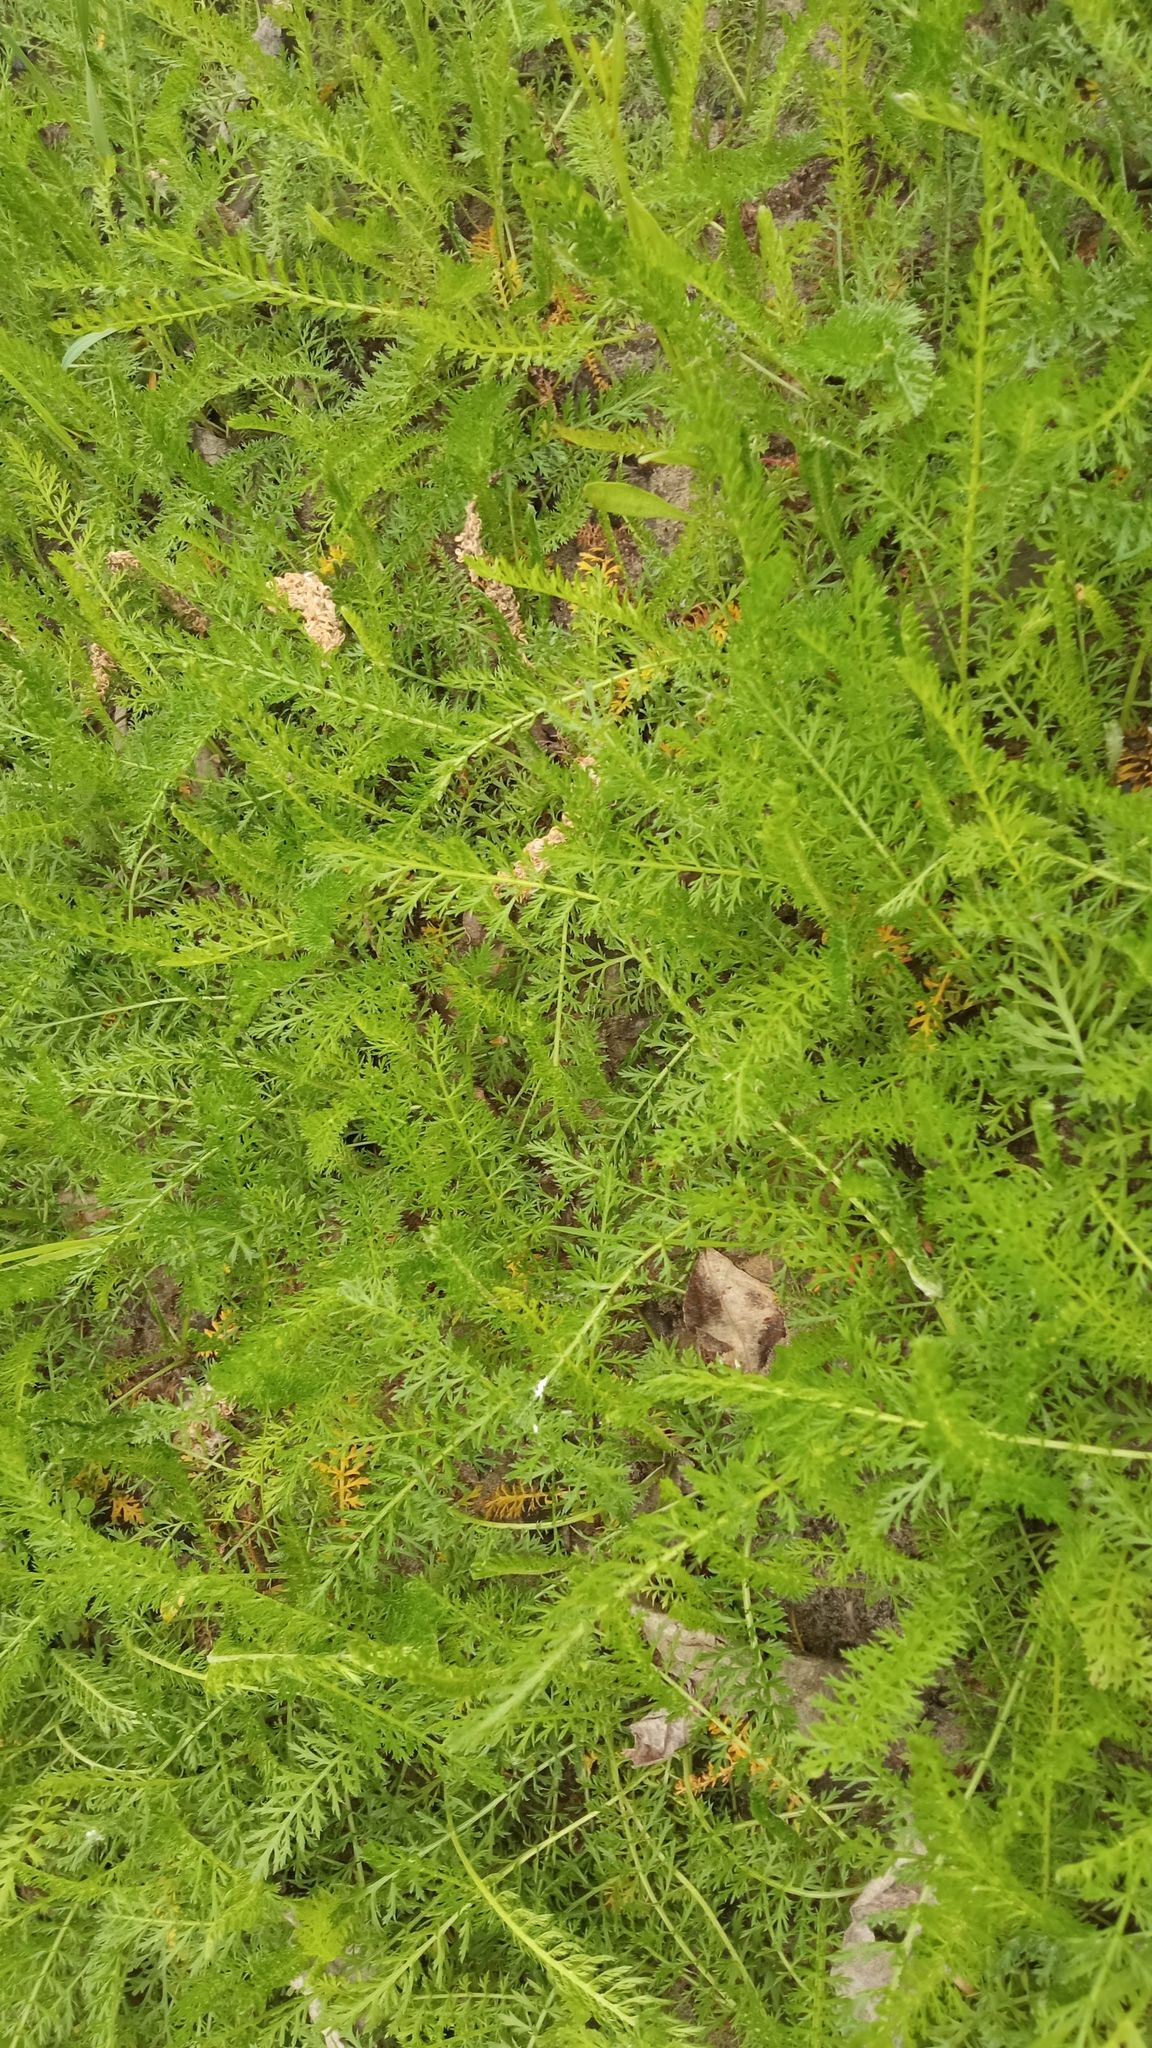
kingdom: Plantae
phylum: Tracheophyta
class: Magnoliopsida
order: Asterales
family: Asteraceae
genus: Achillea
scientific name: Achillea millefolium
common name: Yarrow
